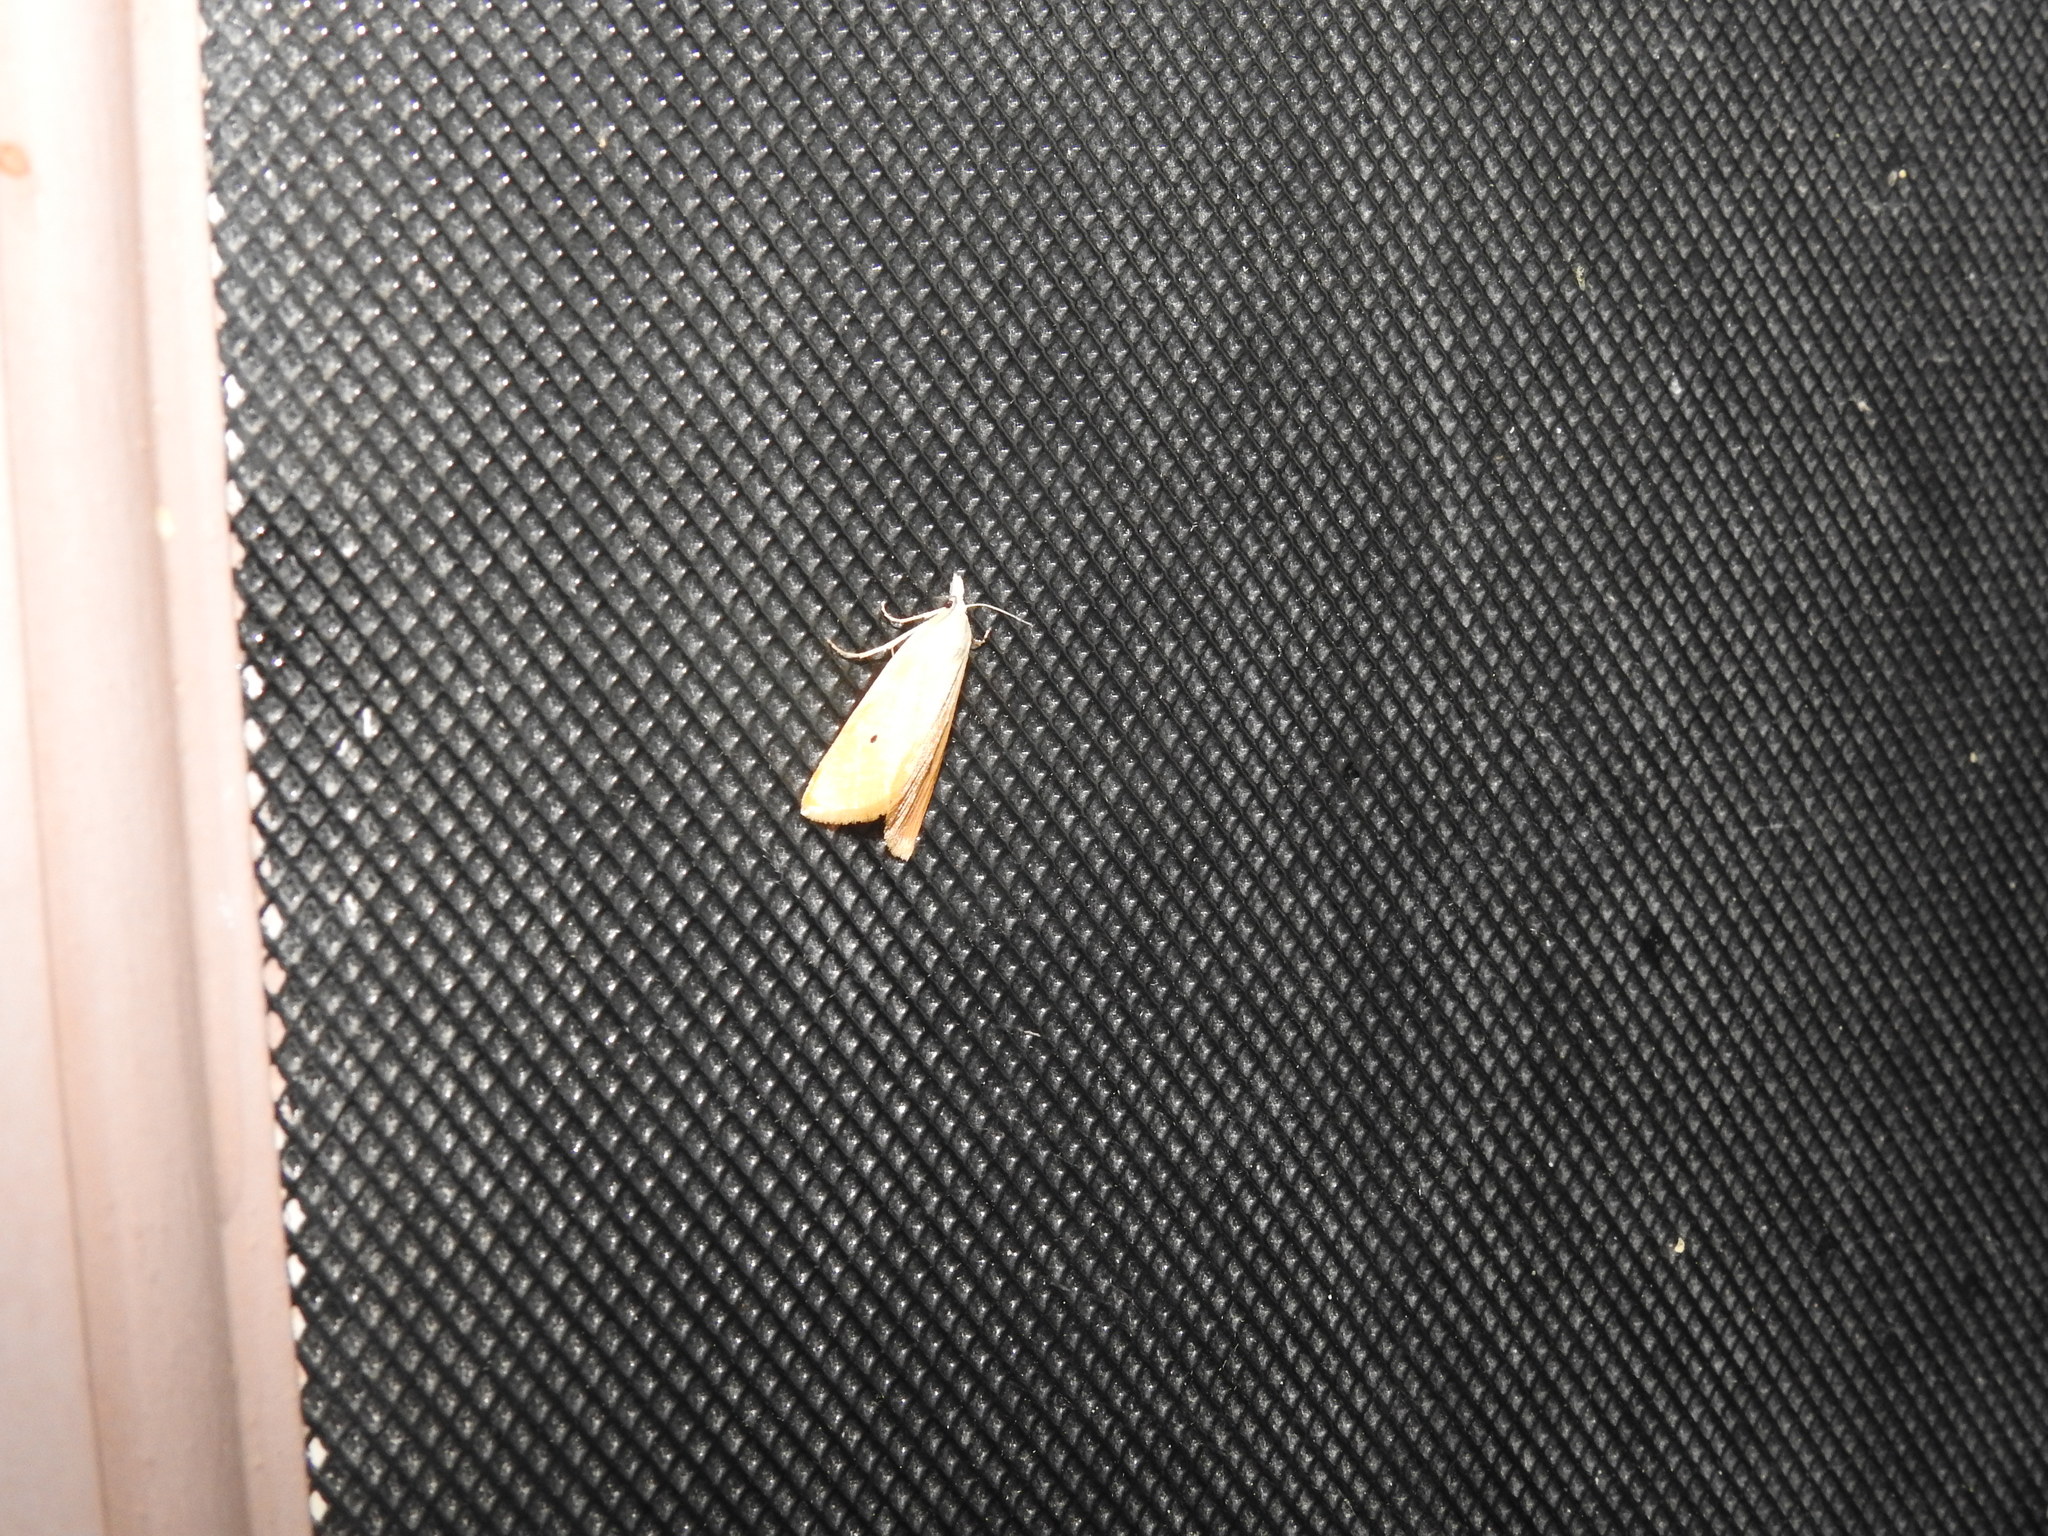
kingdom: Animalia
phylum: Arthropoda
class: Insecta
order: Lepidoptera
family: Crambidae
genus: Scirpophaga
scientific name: Scirpophaga incertulas
